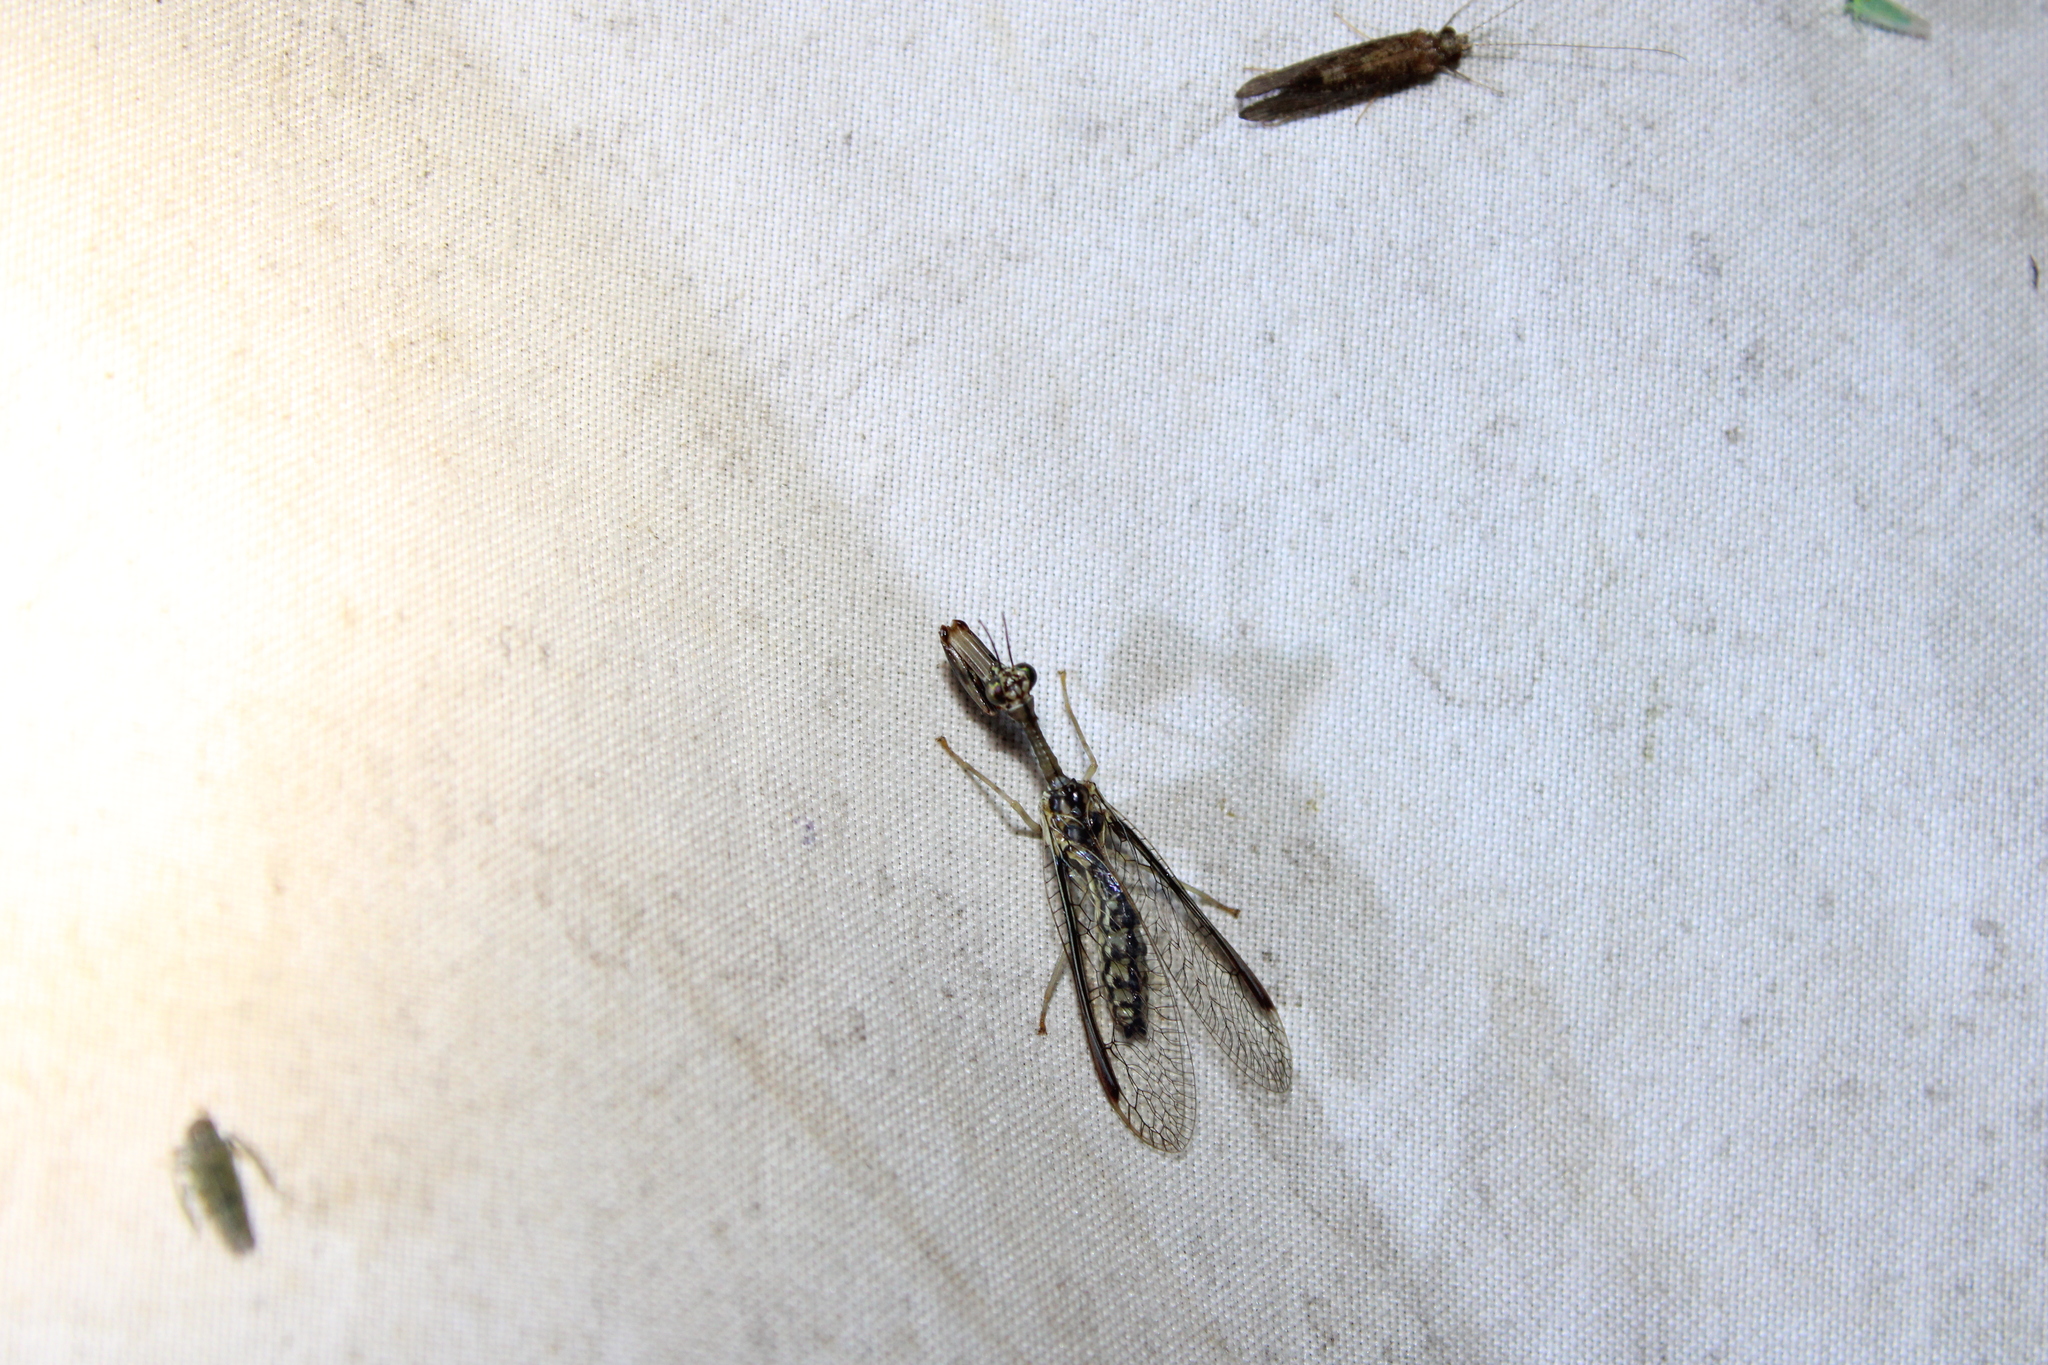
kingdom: Animalia
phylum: Arthropoda
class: Insecta
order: Neuroptera
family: Mantispidae
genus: Dicromantispa
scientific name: Dicromantispa sayi
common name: Say's mantidfly
